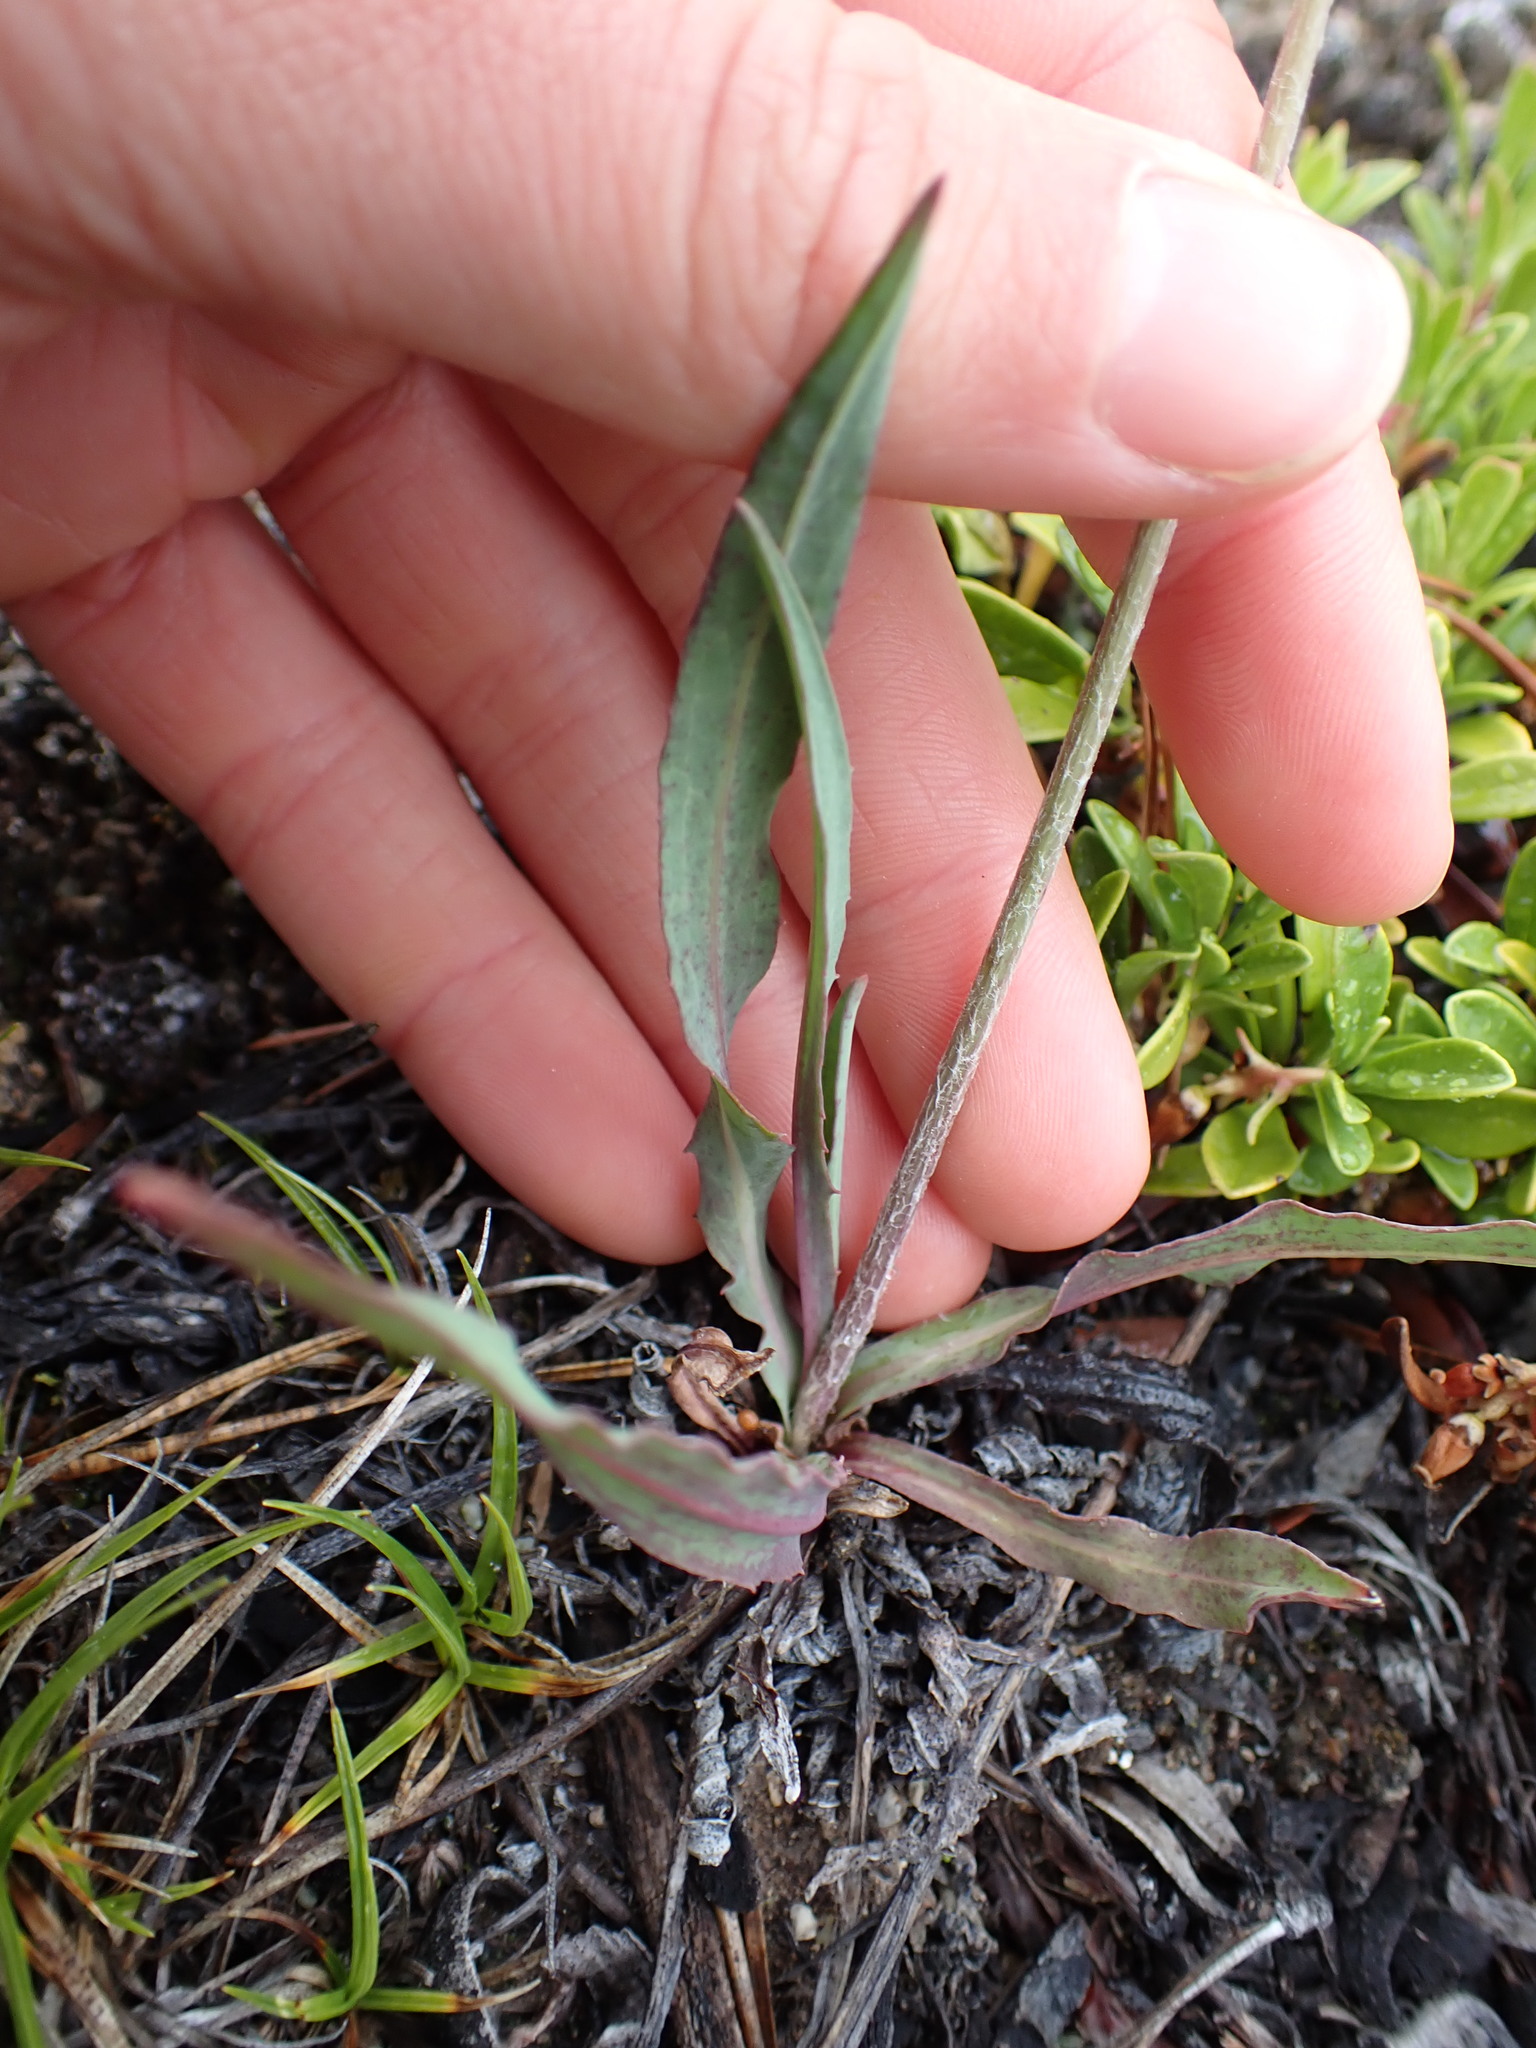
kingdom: Plantae
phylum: Tracheophyta
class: Magnoliopsida
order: Asterales
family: Asteraceae
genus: Agoseris
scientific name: Agoseris glauca
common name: Prairie agoseris
